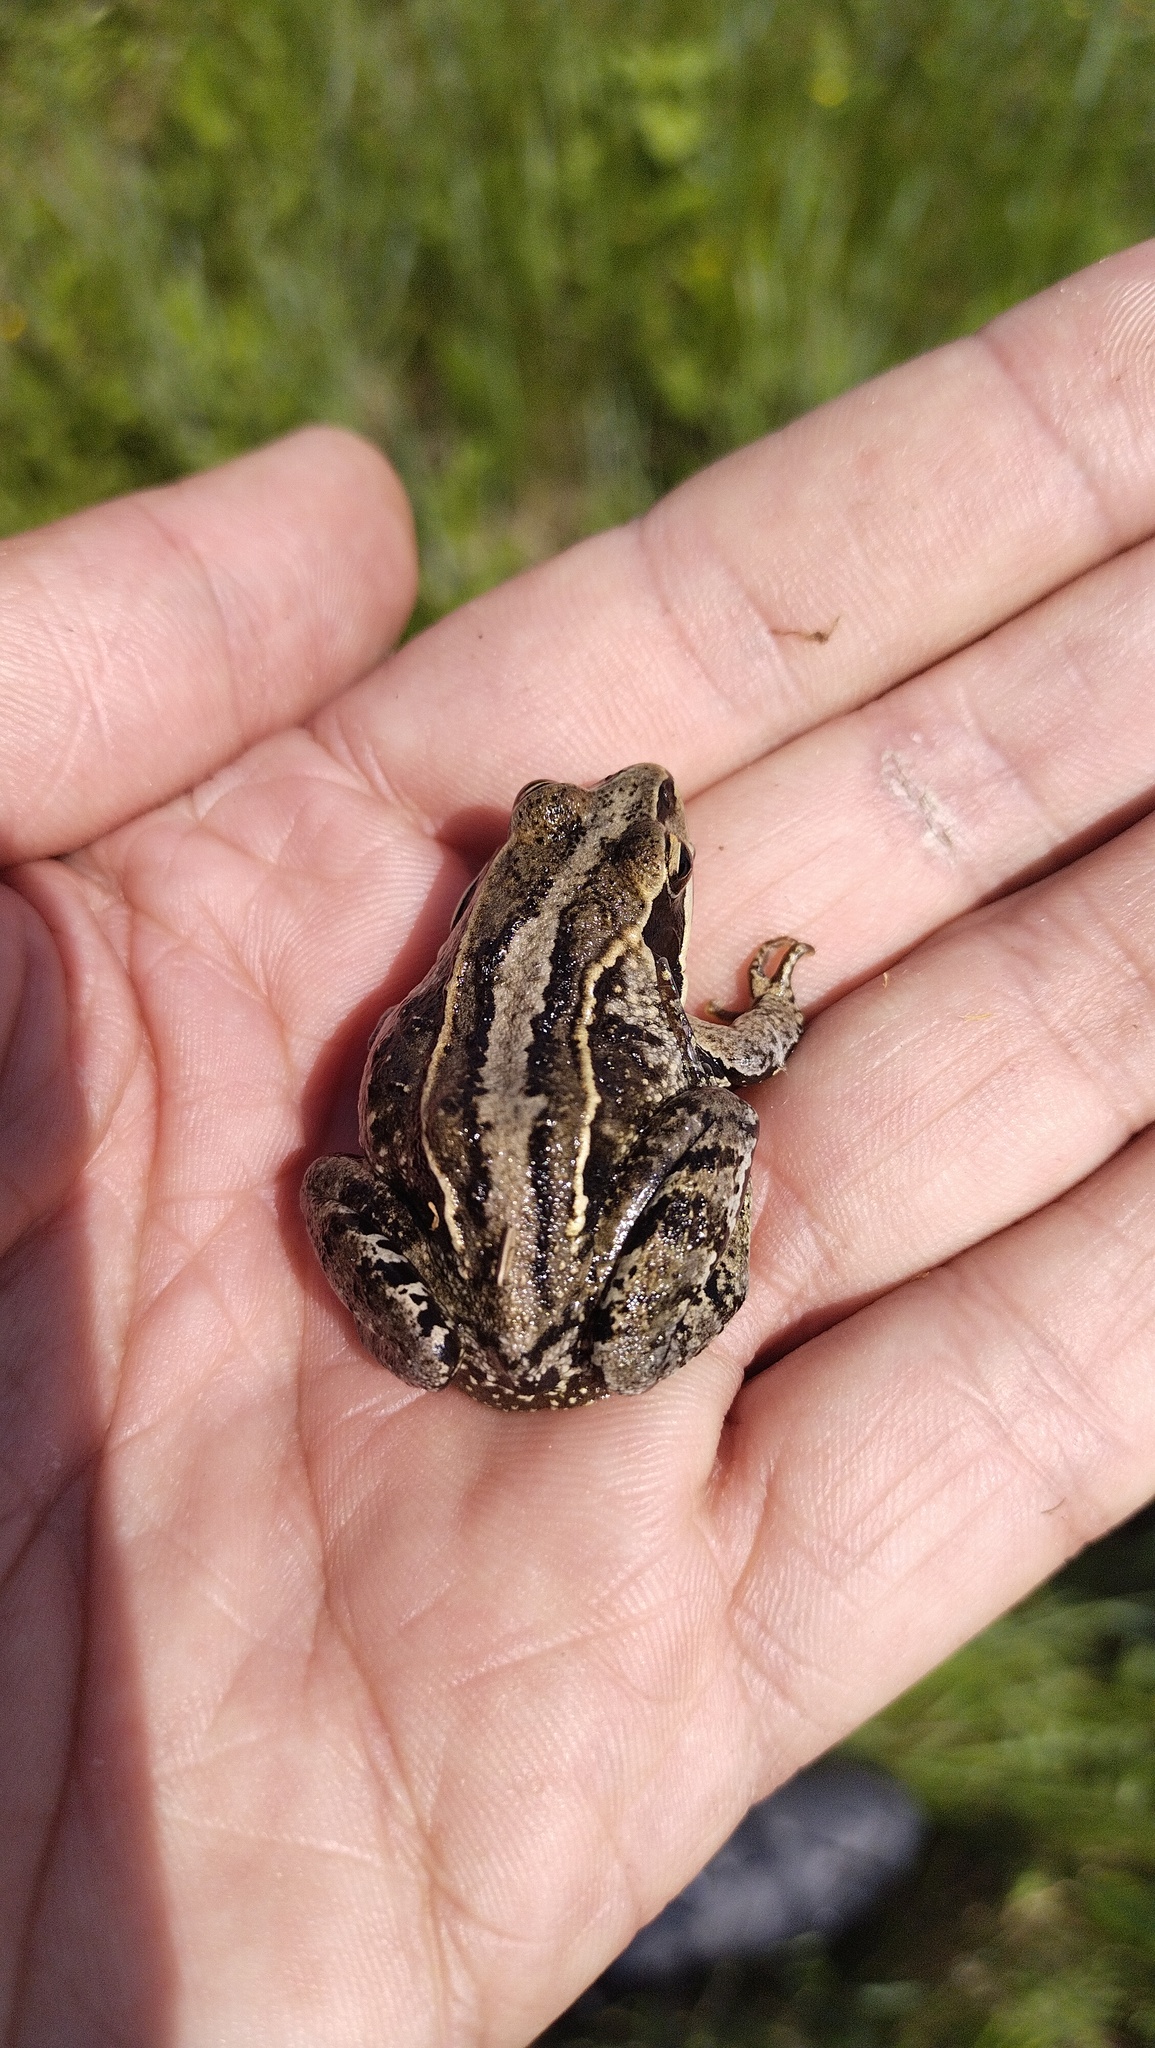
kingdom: Animalia
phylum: Chordata
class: Amphibia
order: Anura
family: Ranidae
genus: Rana
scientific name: Rana arvalis
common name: Moor frog
